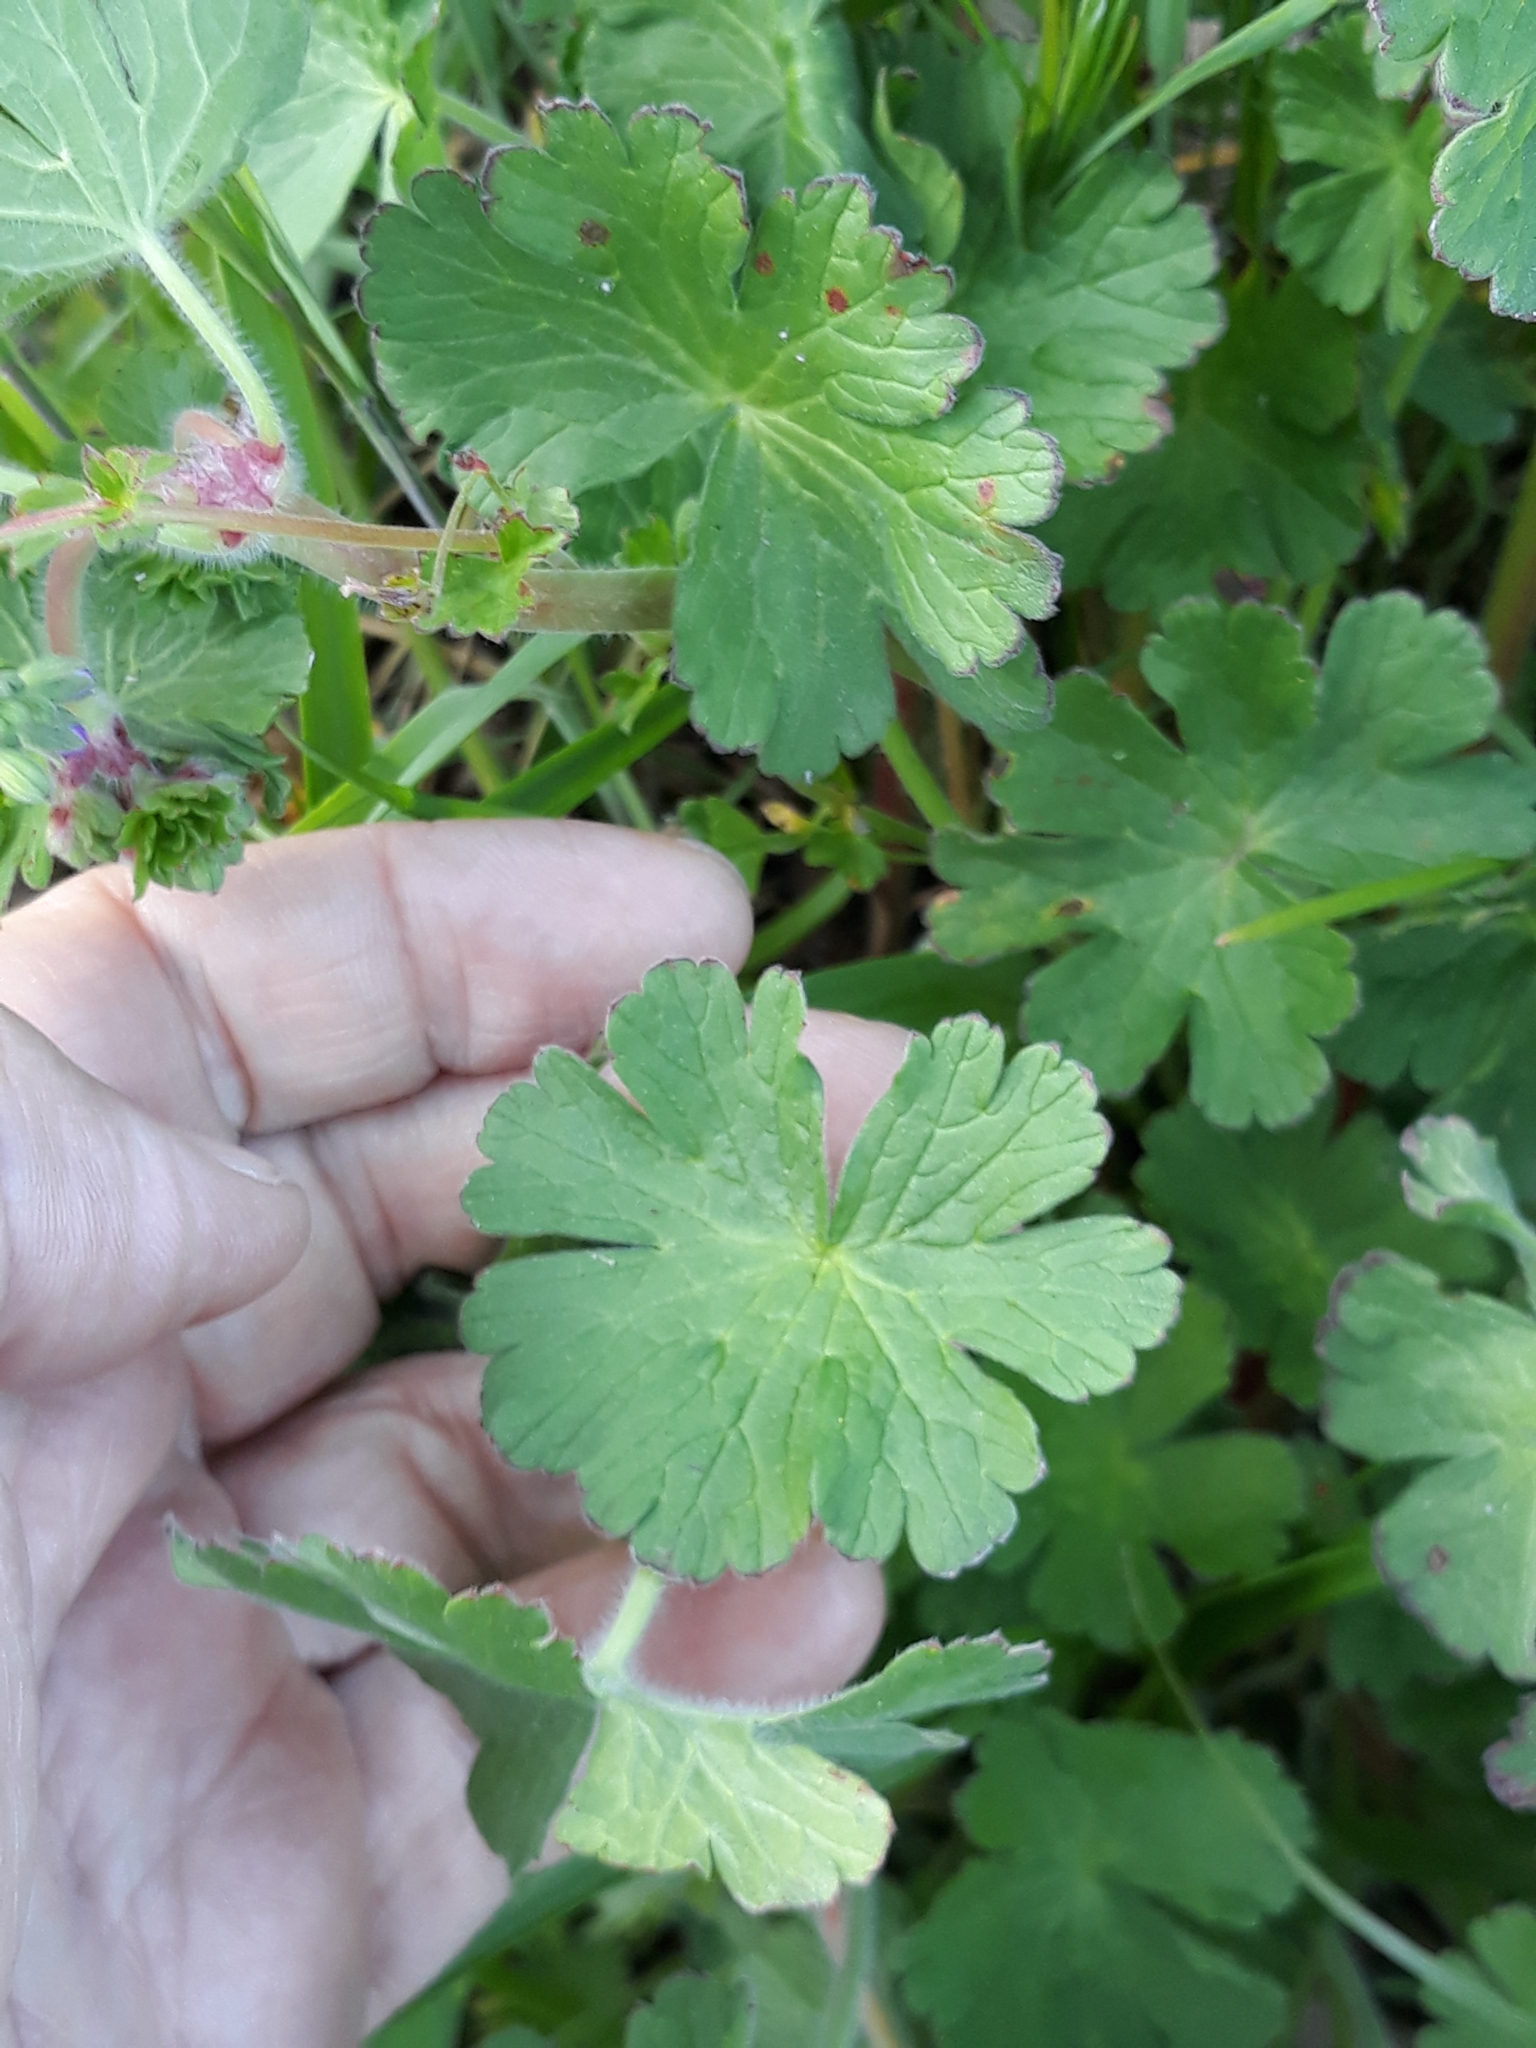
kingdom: Plantae
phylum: Tracheophyta
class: Magnoliopsida
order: Geraniales
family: Geraniaceae
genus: Geranium
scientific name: Geranium pyrenaicum
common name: Hedgerow crane's-bill
